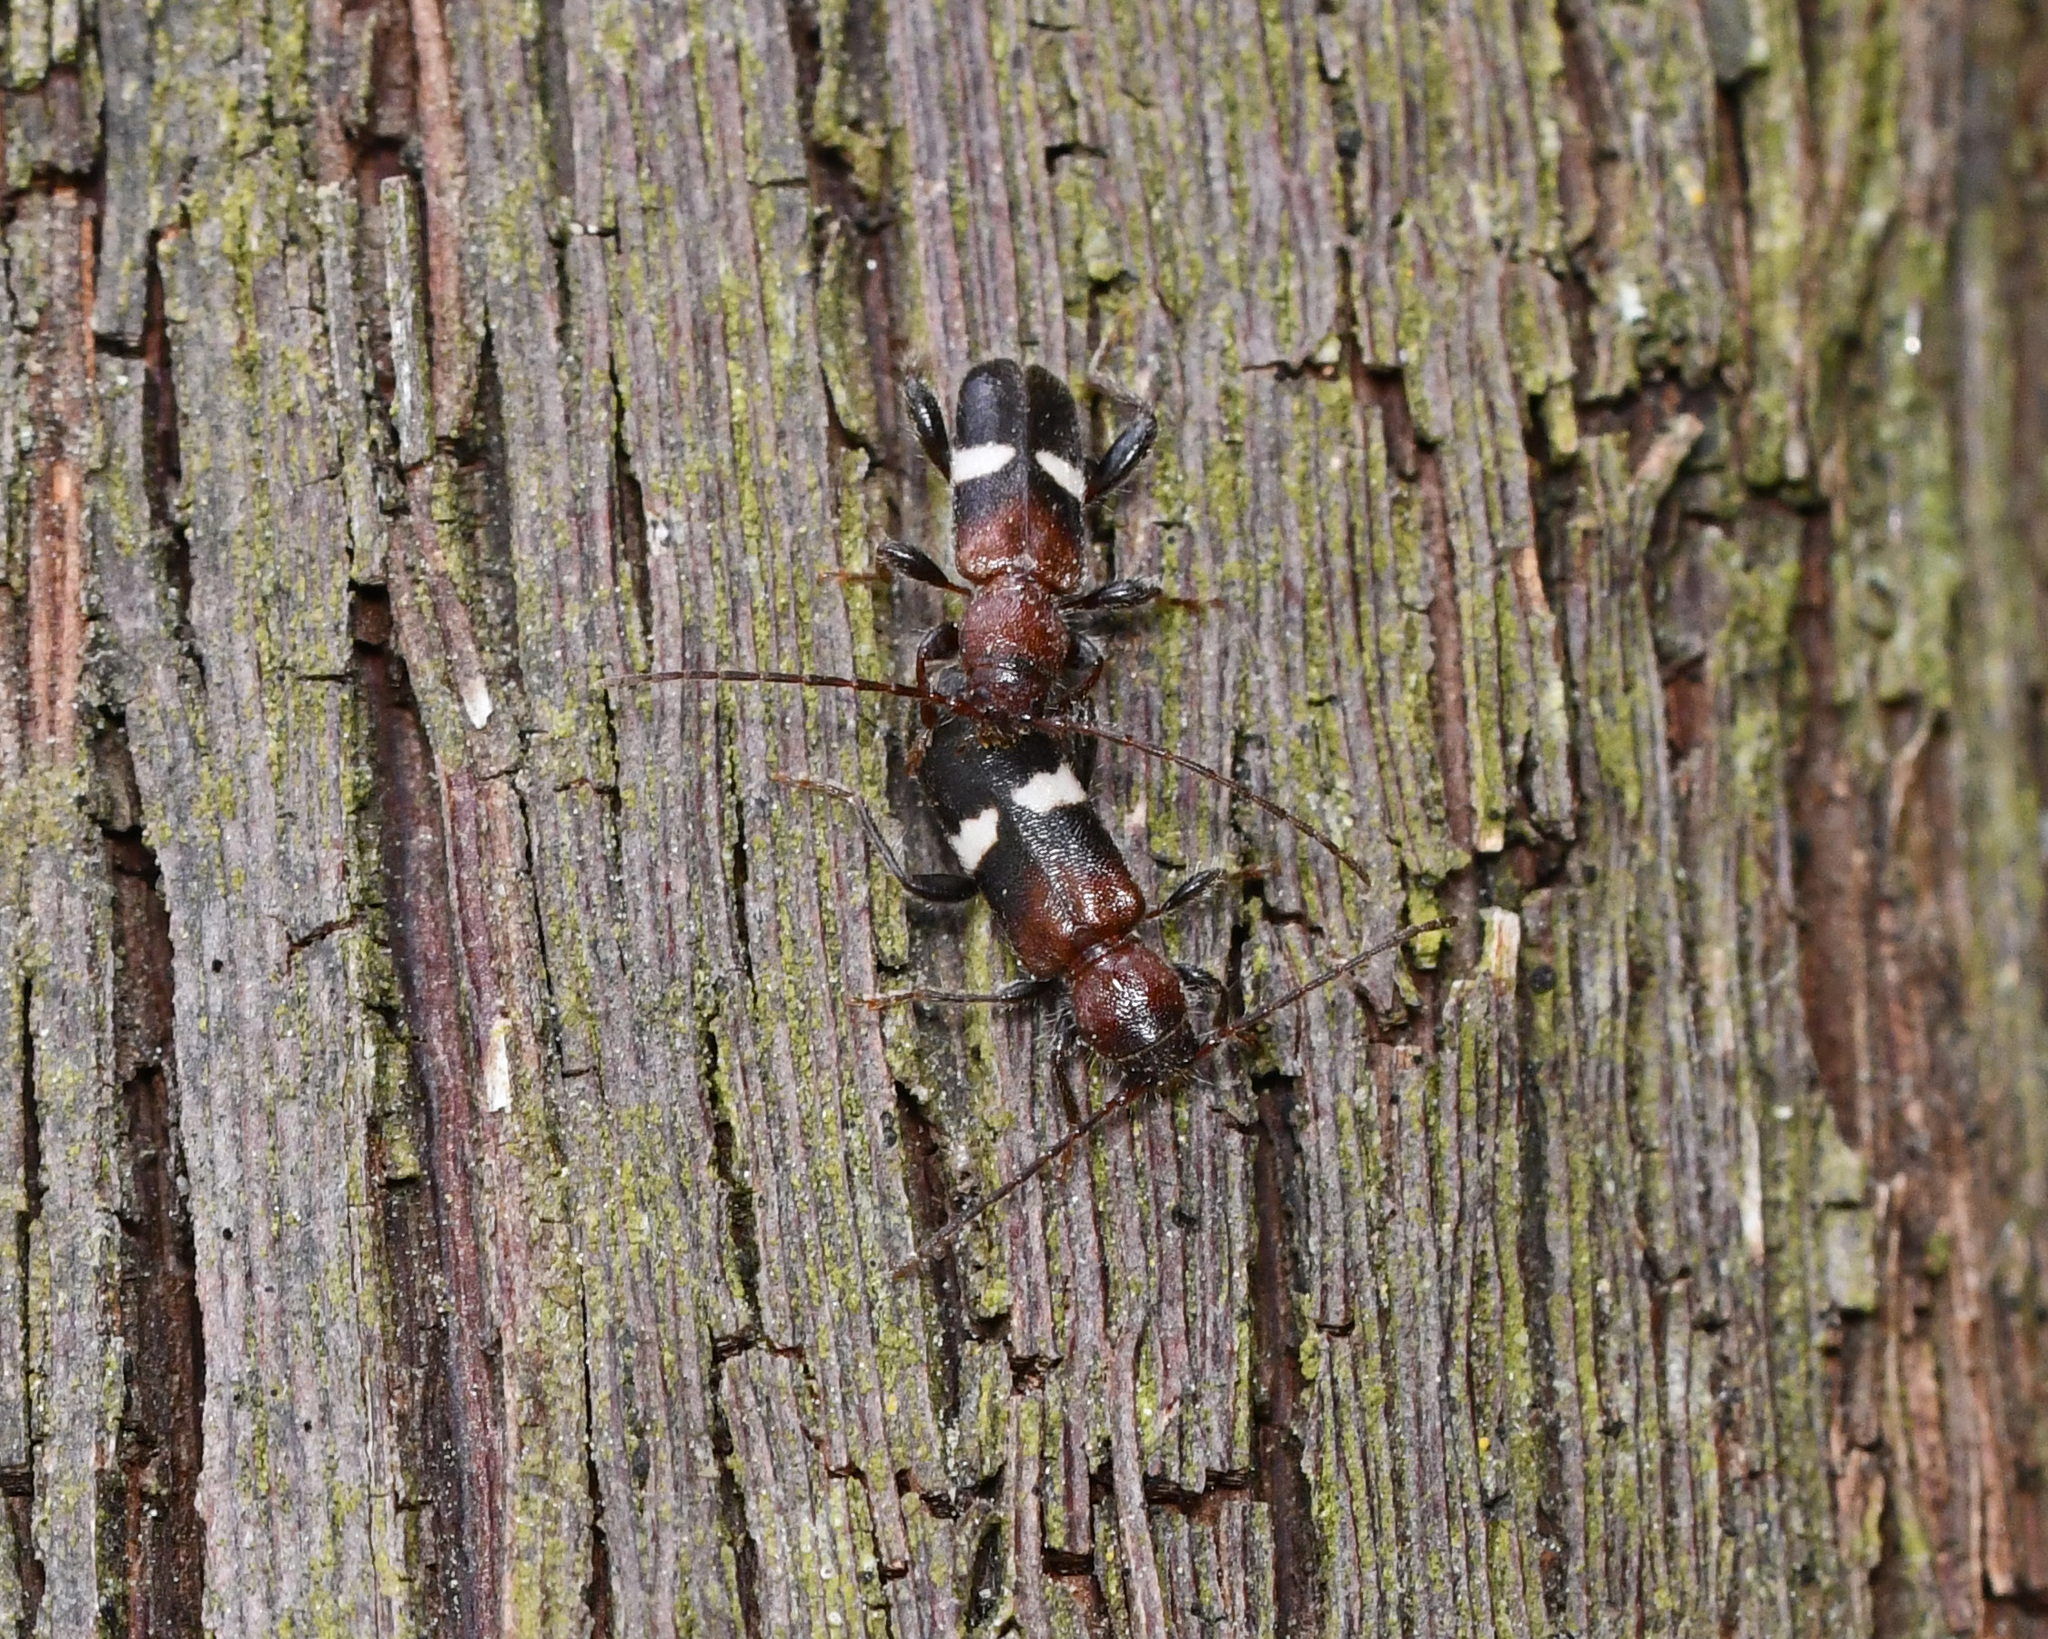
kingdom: Animalia
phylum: Arthropoda
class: Insecta
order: Coleoptera
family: Cerambycidae
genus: Poecilium
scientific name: Poecilium fasciatum
